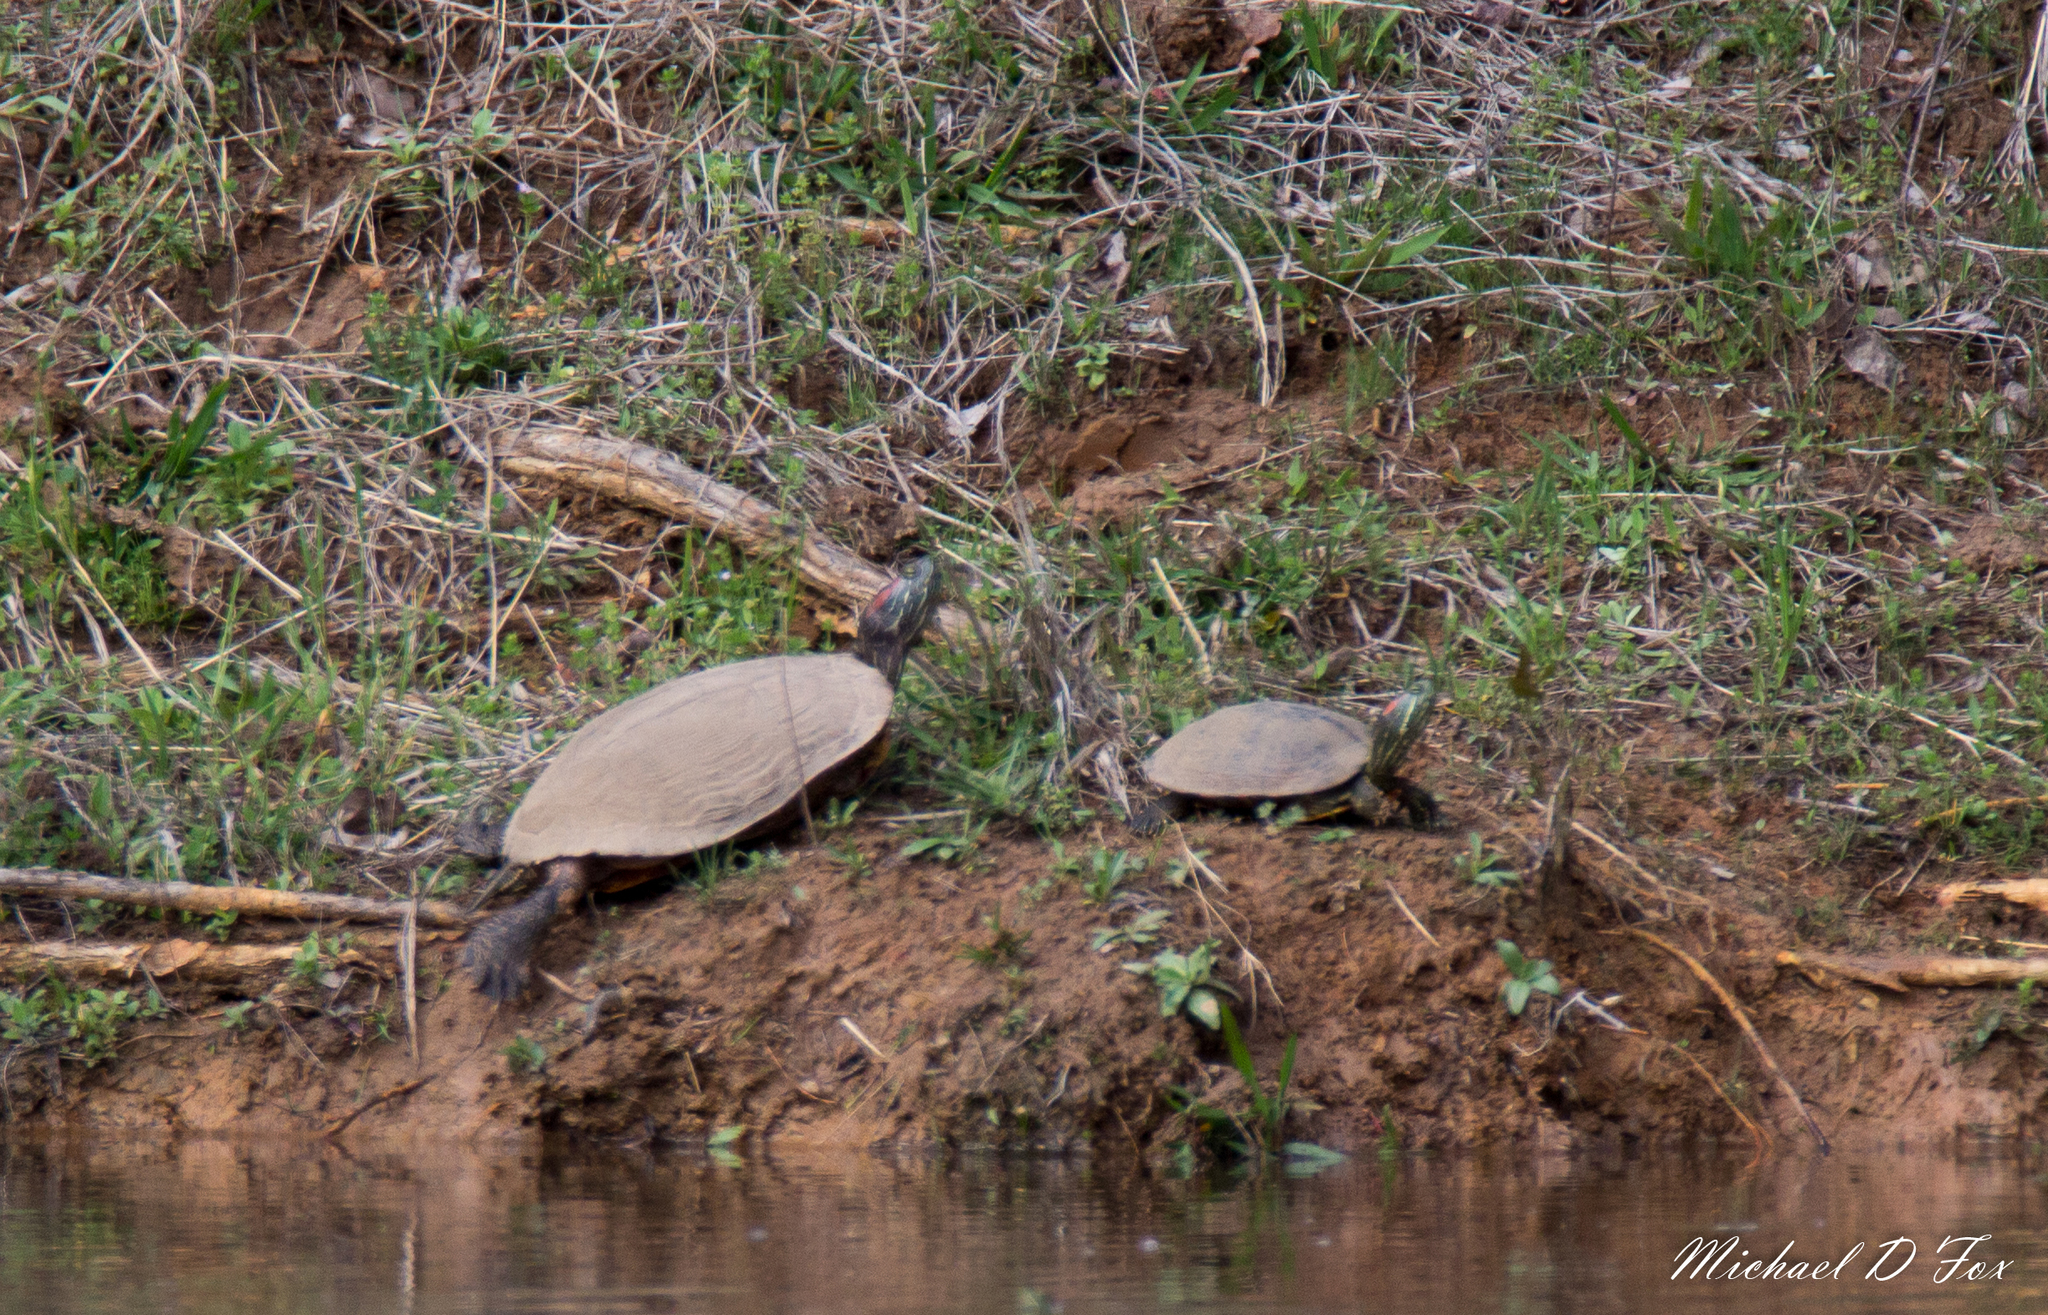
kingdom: Animalia
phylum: Chordata
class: Testudines
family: Emydidae
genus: Trachemys
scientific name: Trachemys scripta
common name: Slider
